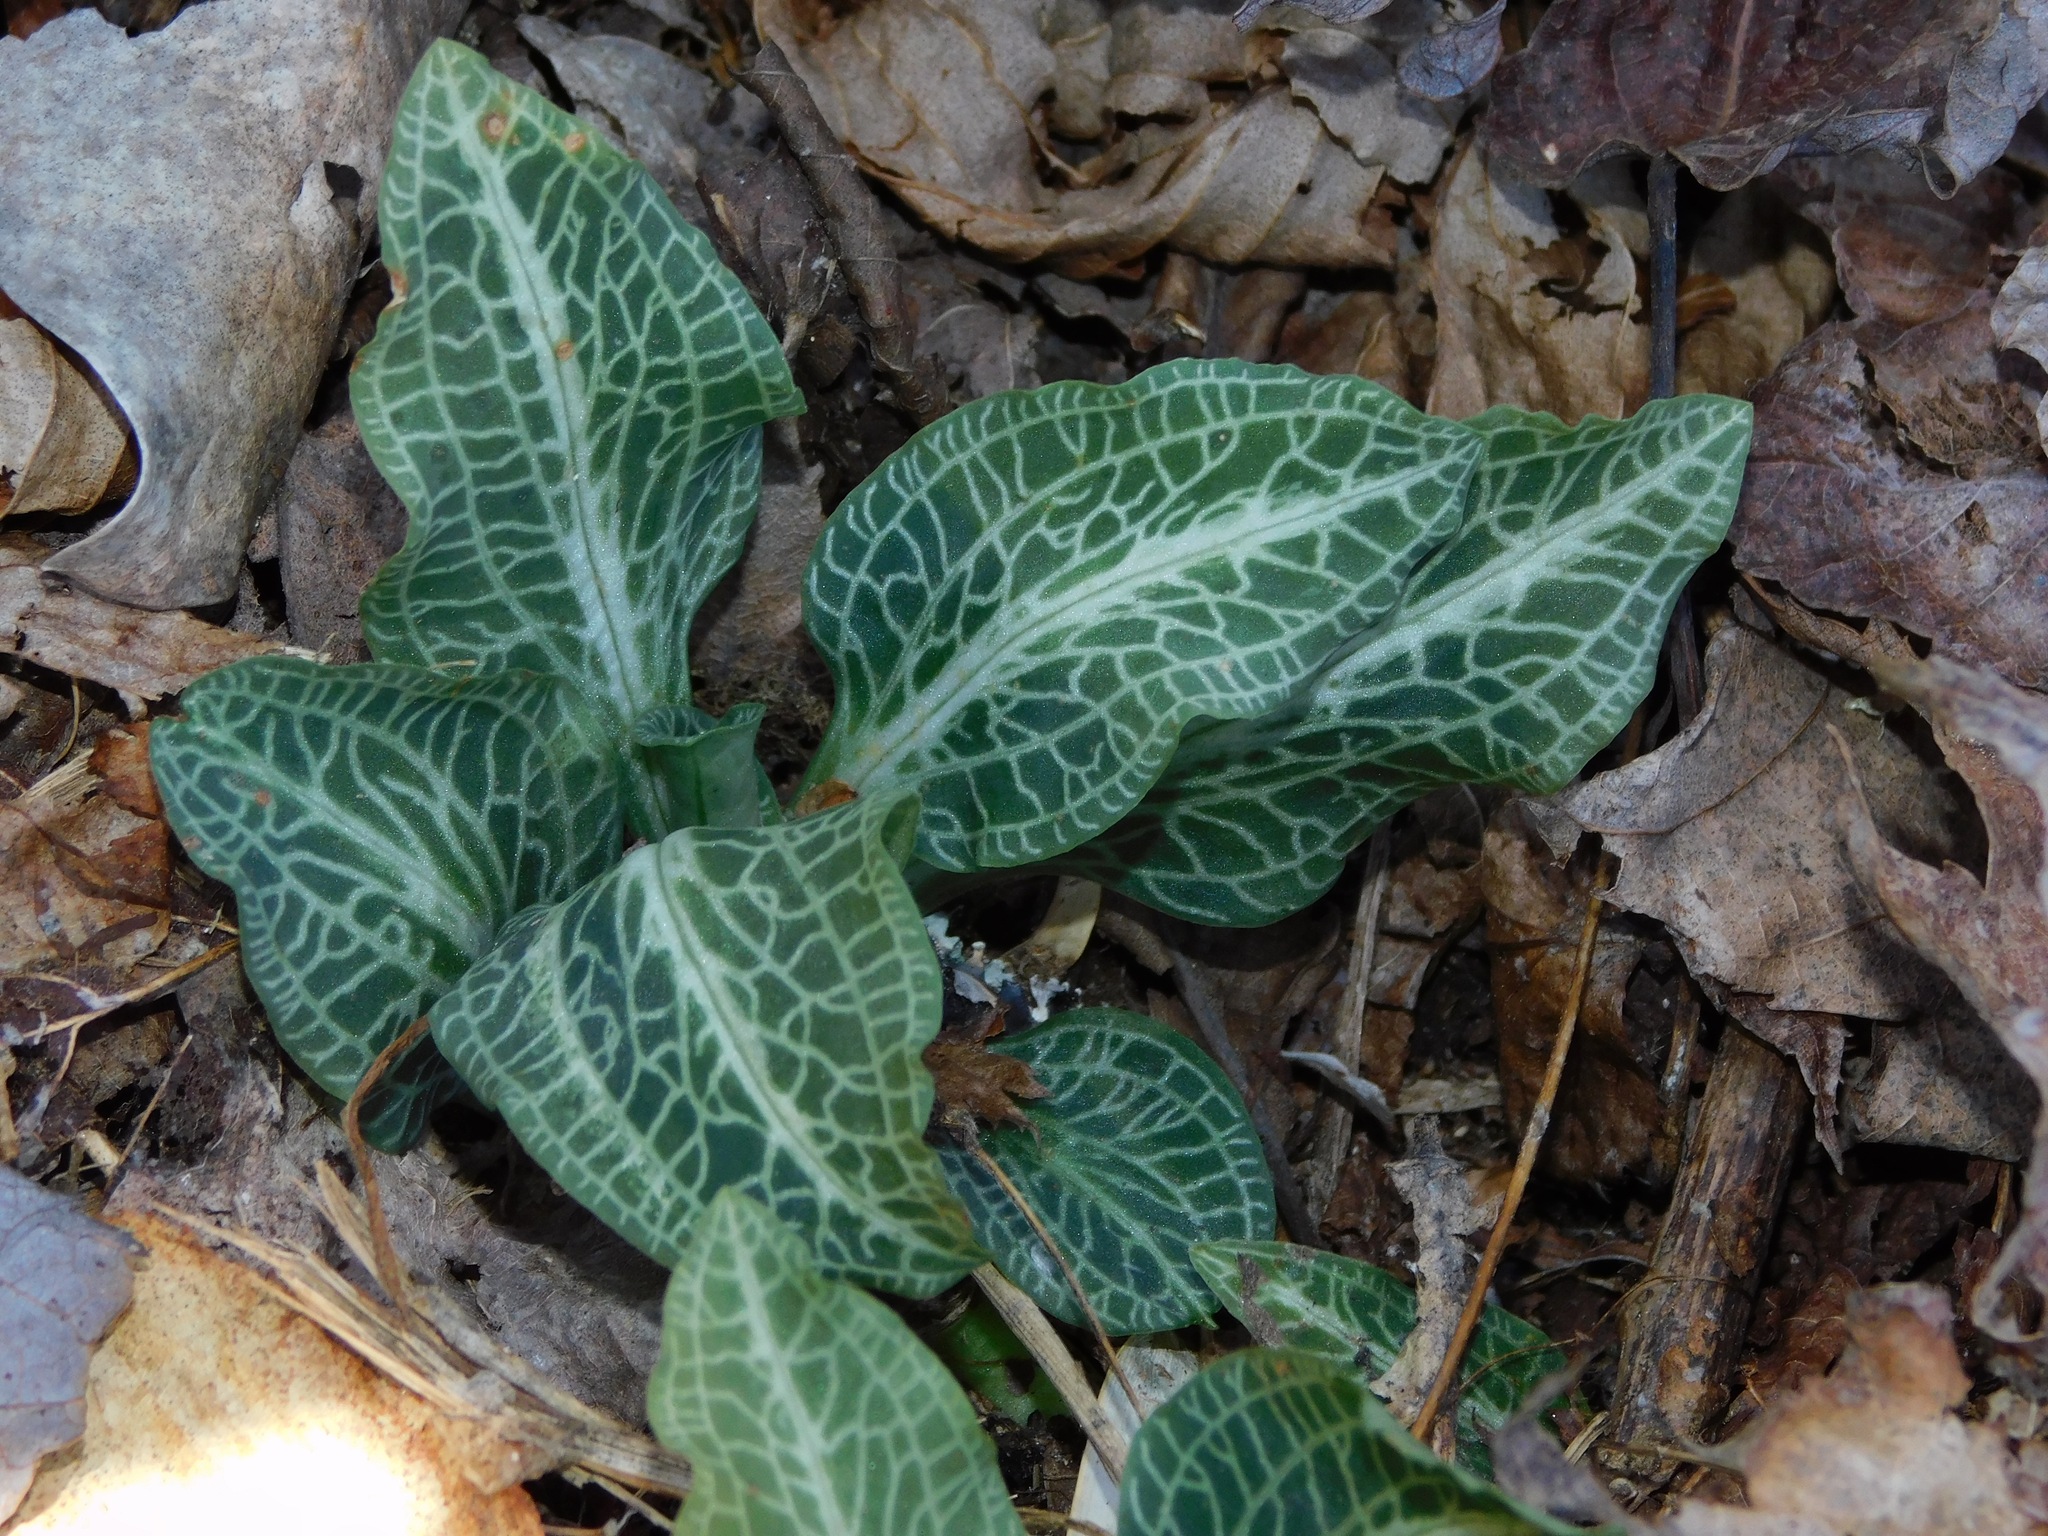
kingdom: Plantae
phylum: Tracheophyta
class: Liliopsida
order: Asparagales
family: Orchidaceae
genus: Goodyera
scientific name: Goodyera pubescens
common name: Downy rattlesnake-plantain
